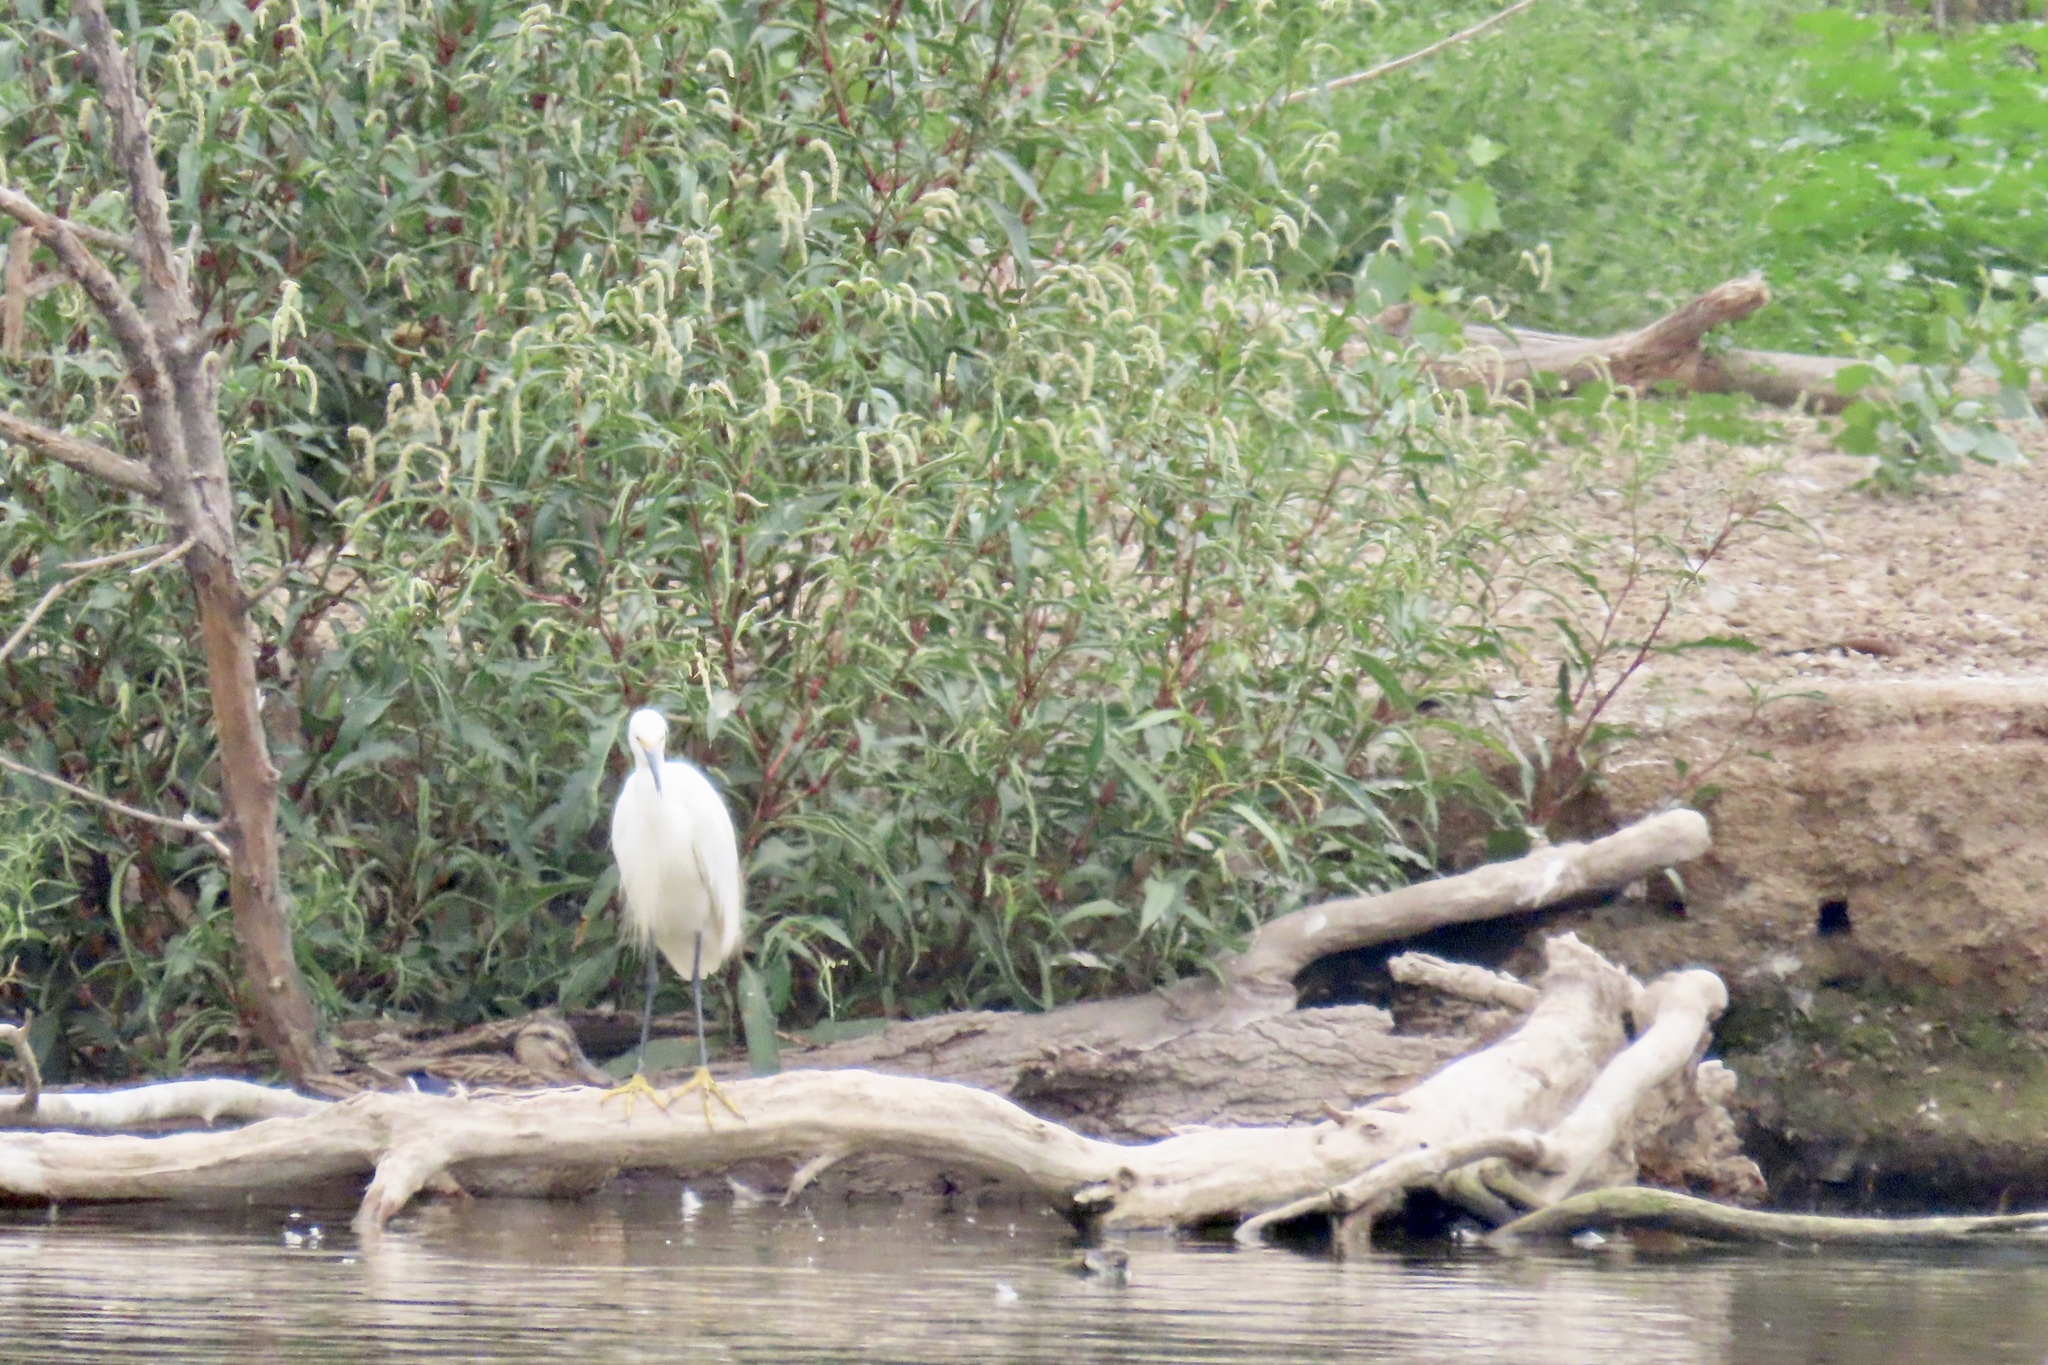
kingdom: Animalia
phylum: Chordata
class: Aves
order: Pelecaniformes
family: Ardeidae
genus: Egretta
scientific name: Egretta thula
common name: Snowy egret
